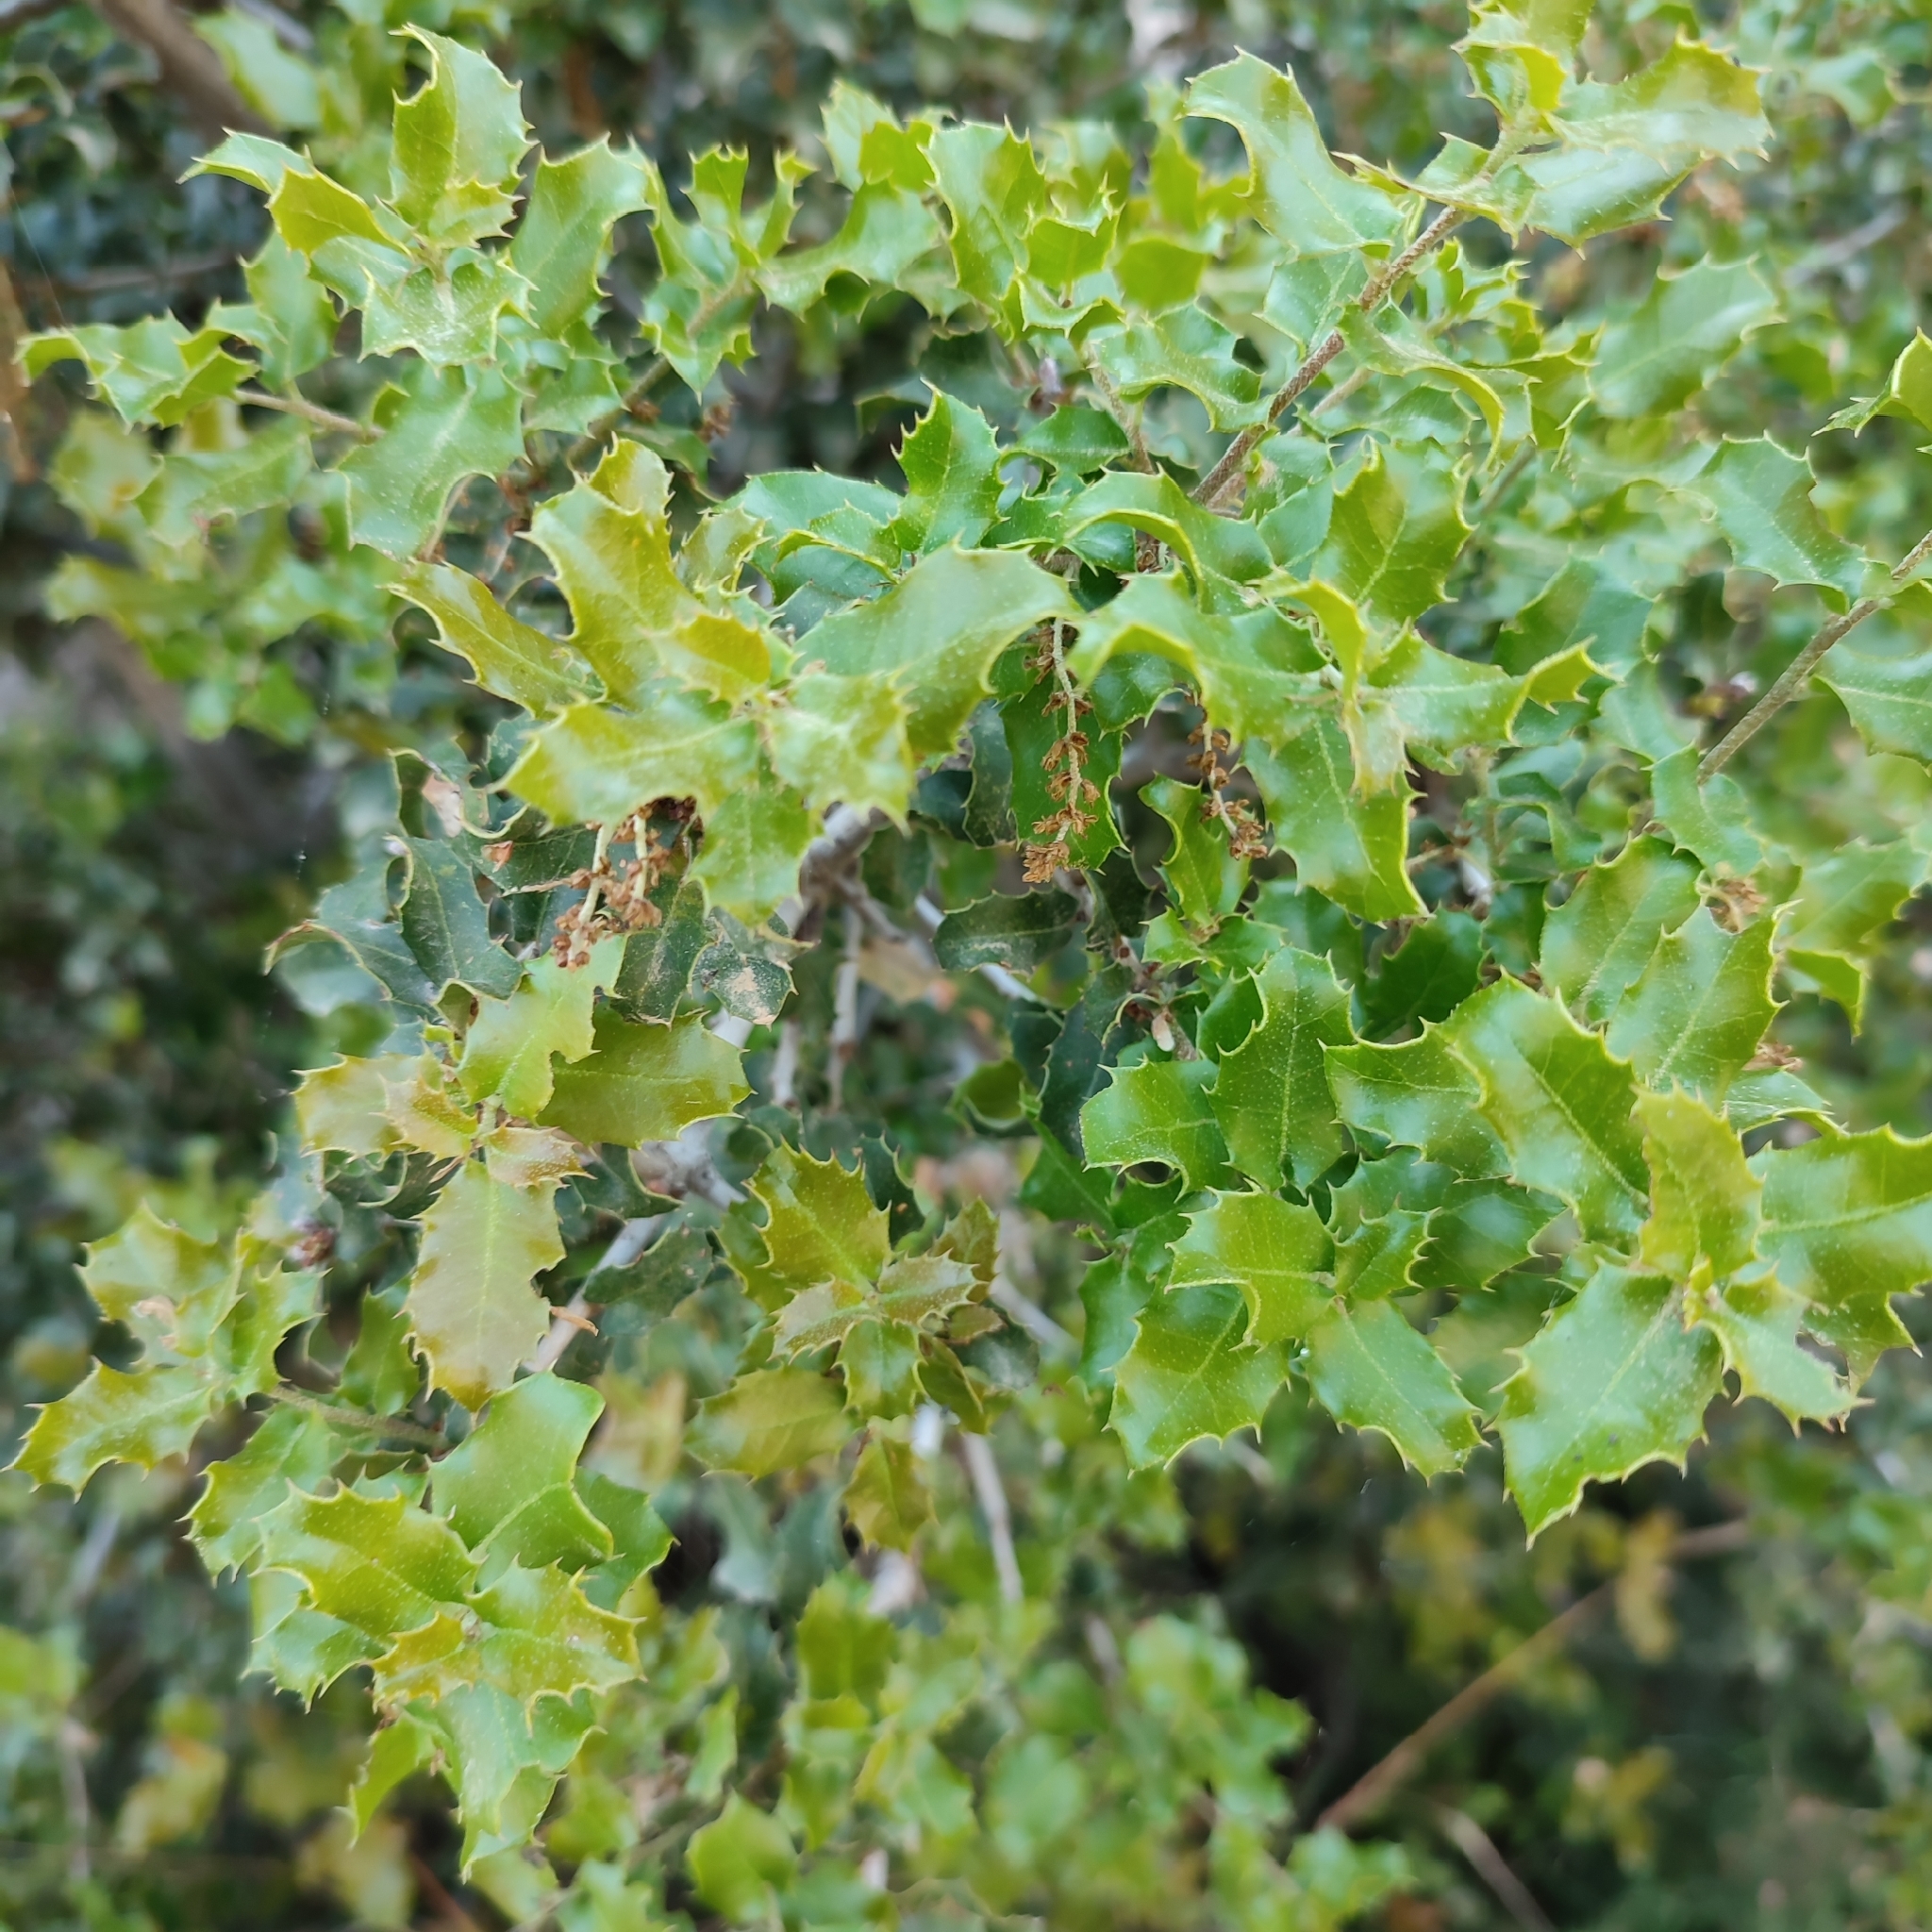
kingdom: Plantae
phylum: Tracheophyta
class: Magnoliopsida
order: Fagales
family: Fagaceae
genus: Quercus
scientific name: Quercus coccifera
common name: Kermes oak
